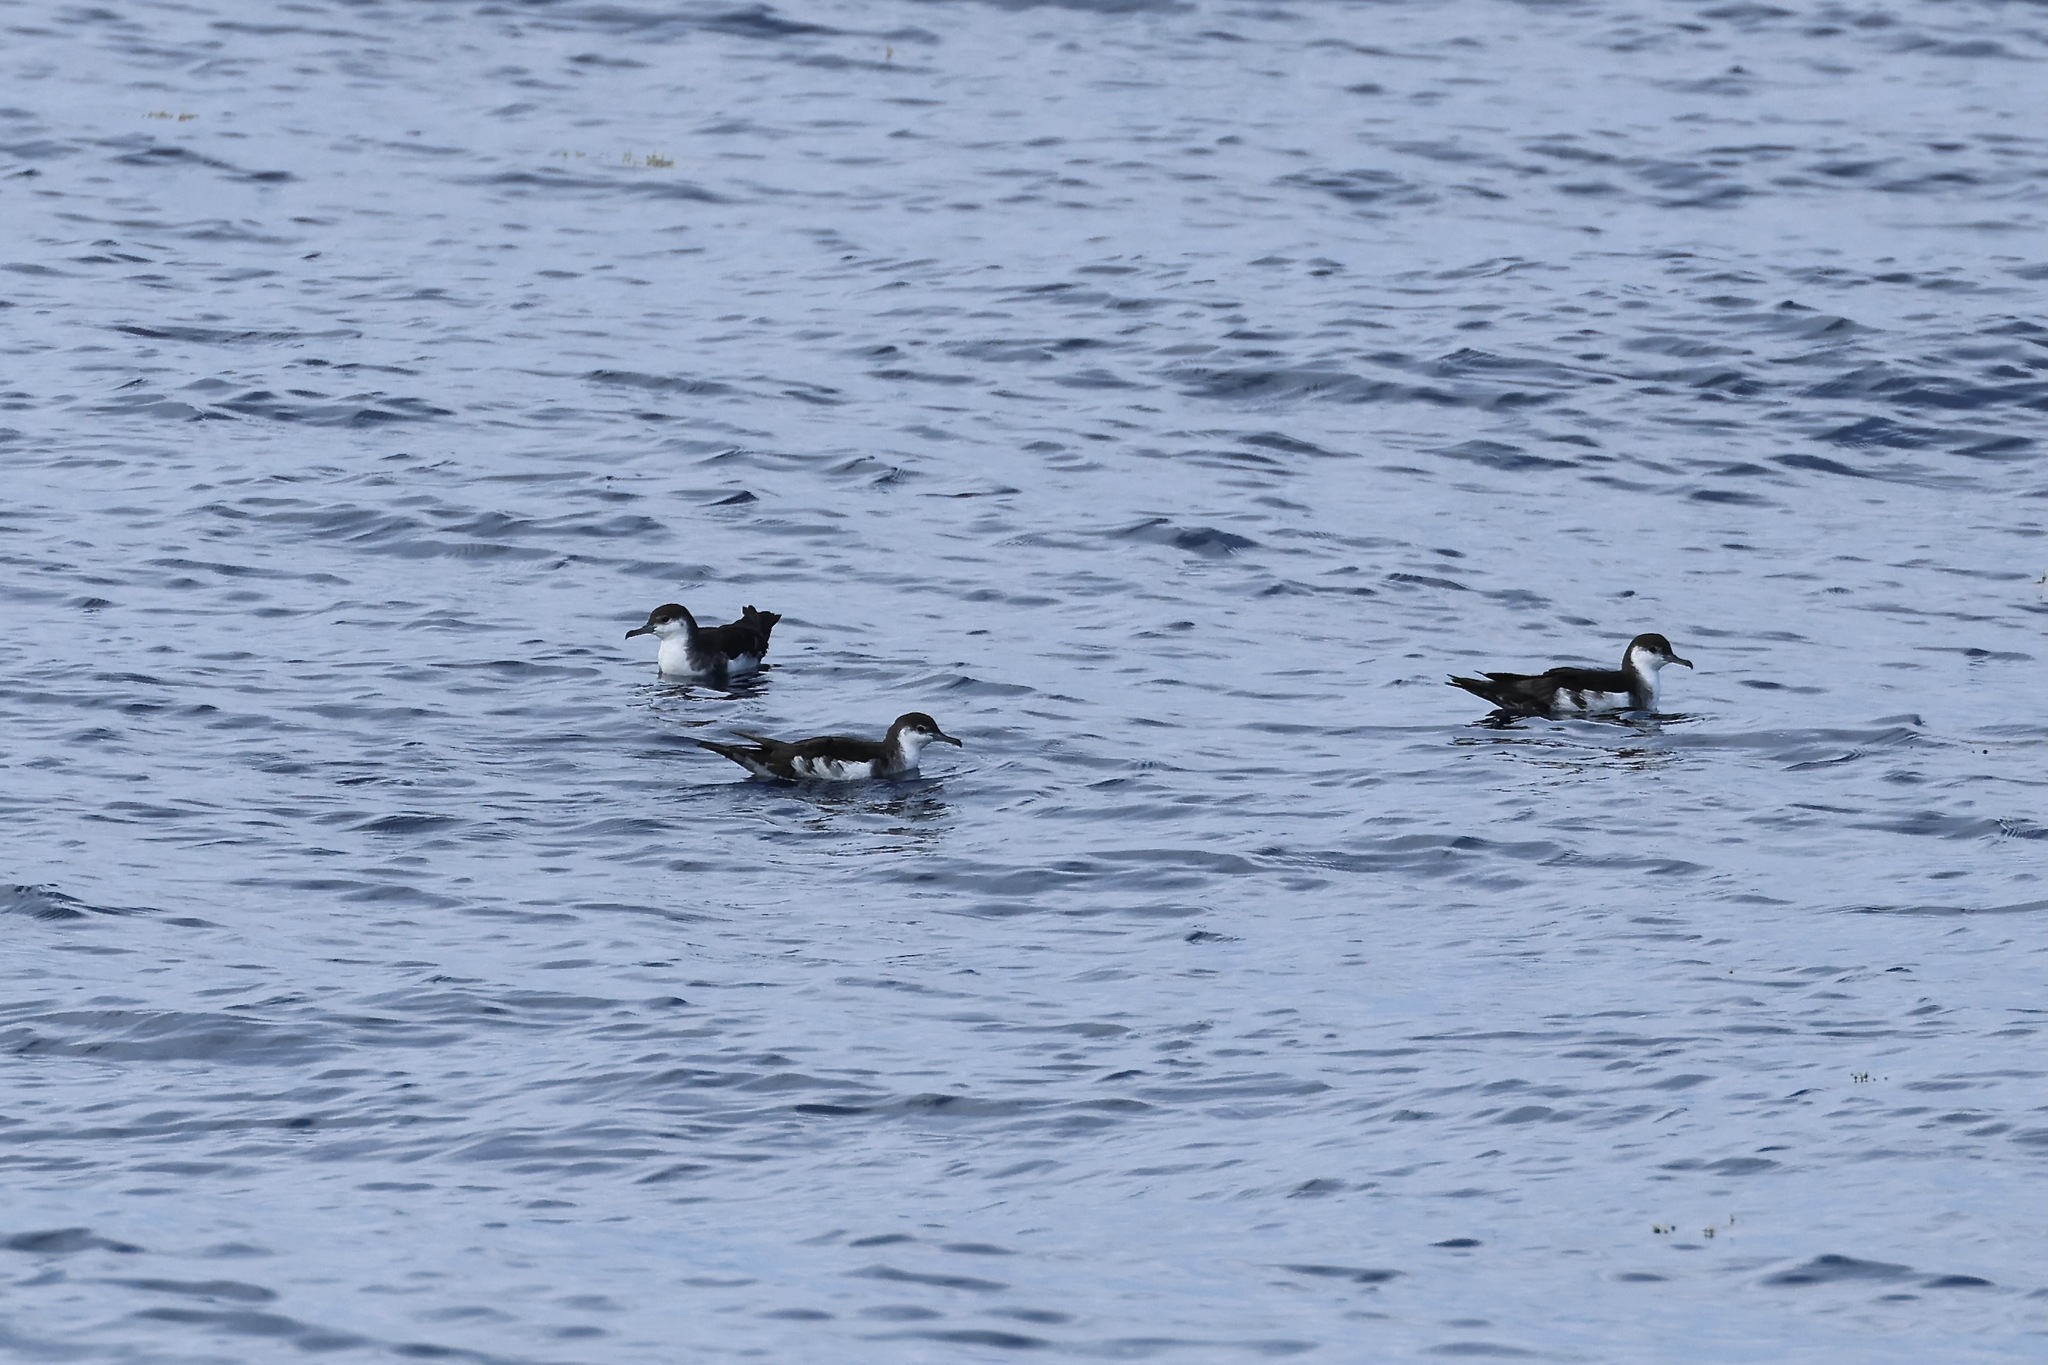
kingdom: Animalia
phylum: Chordata
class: Aves
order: Procellariiformes
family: Procellariidae
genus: Puffinus
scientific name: Puffinus lherminieri
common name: Audubon's shearwater
